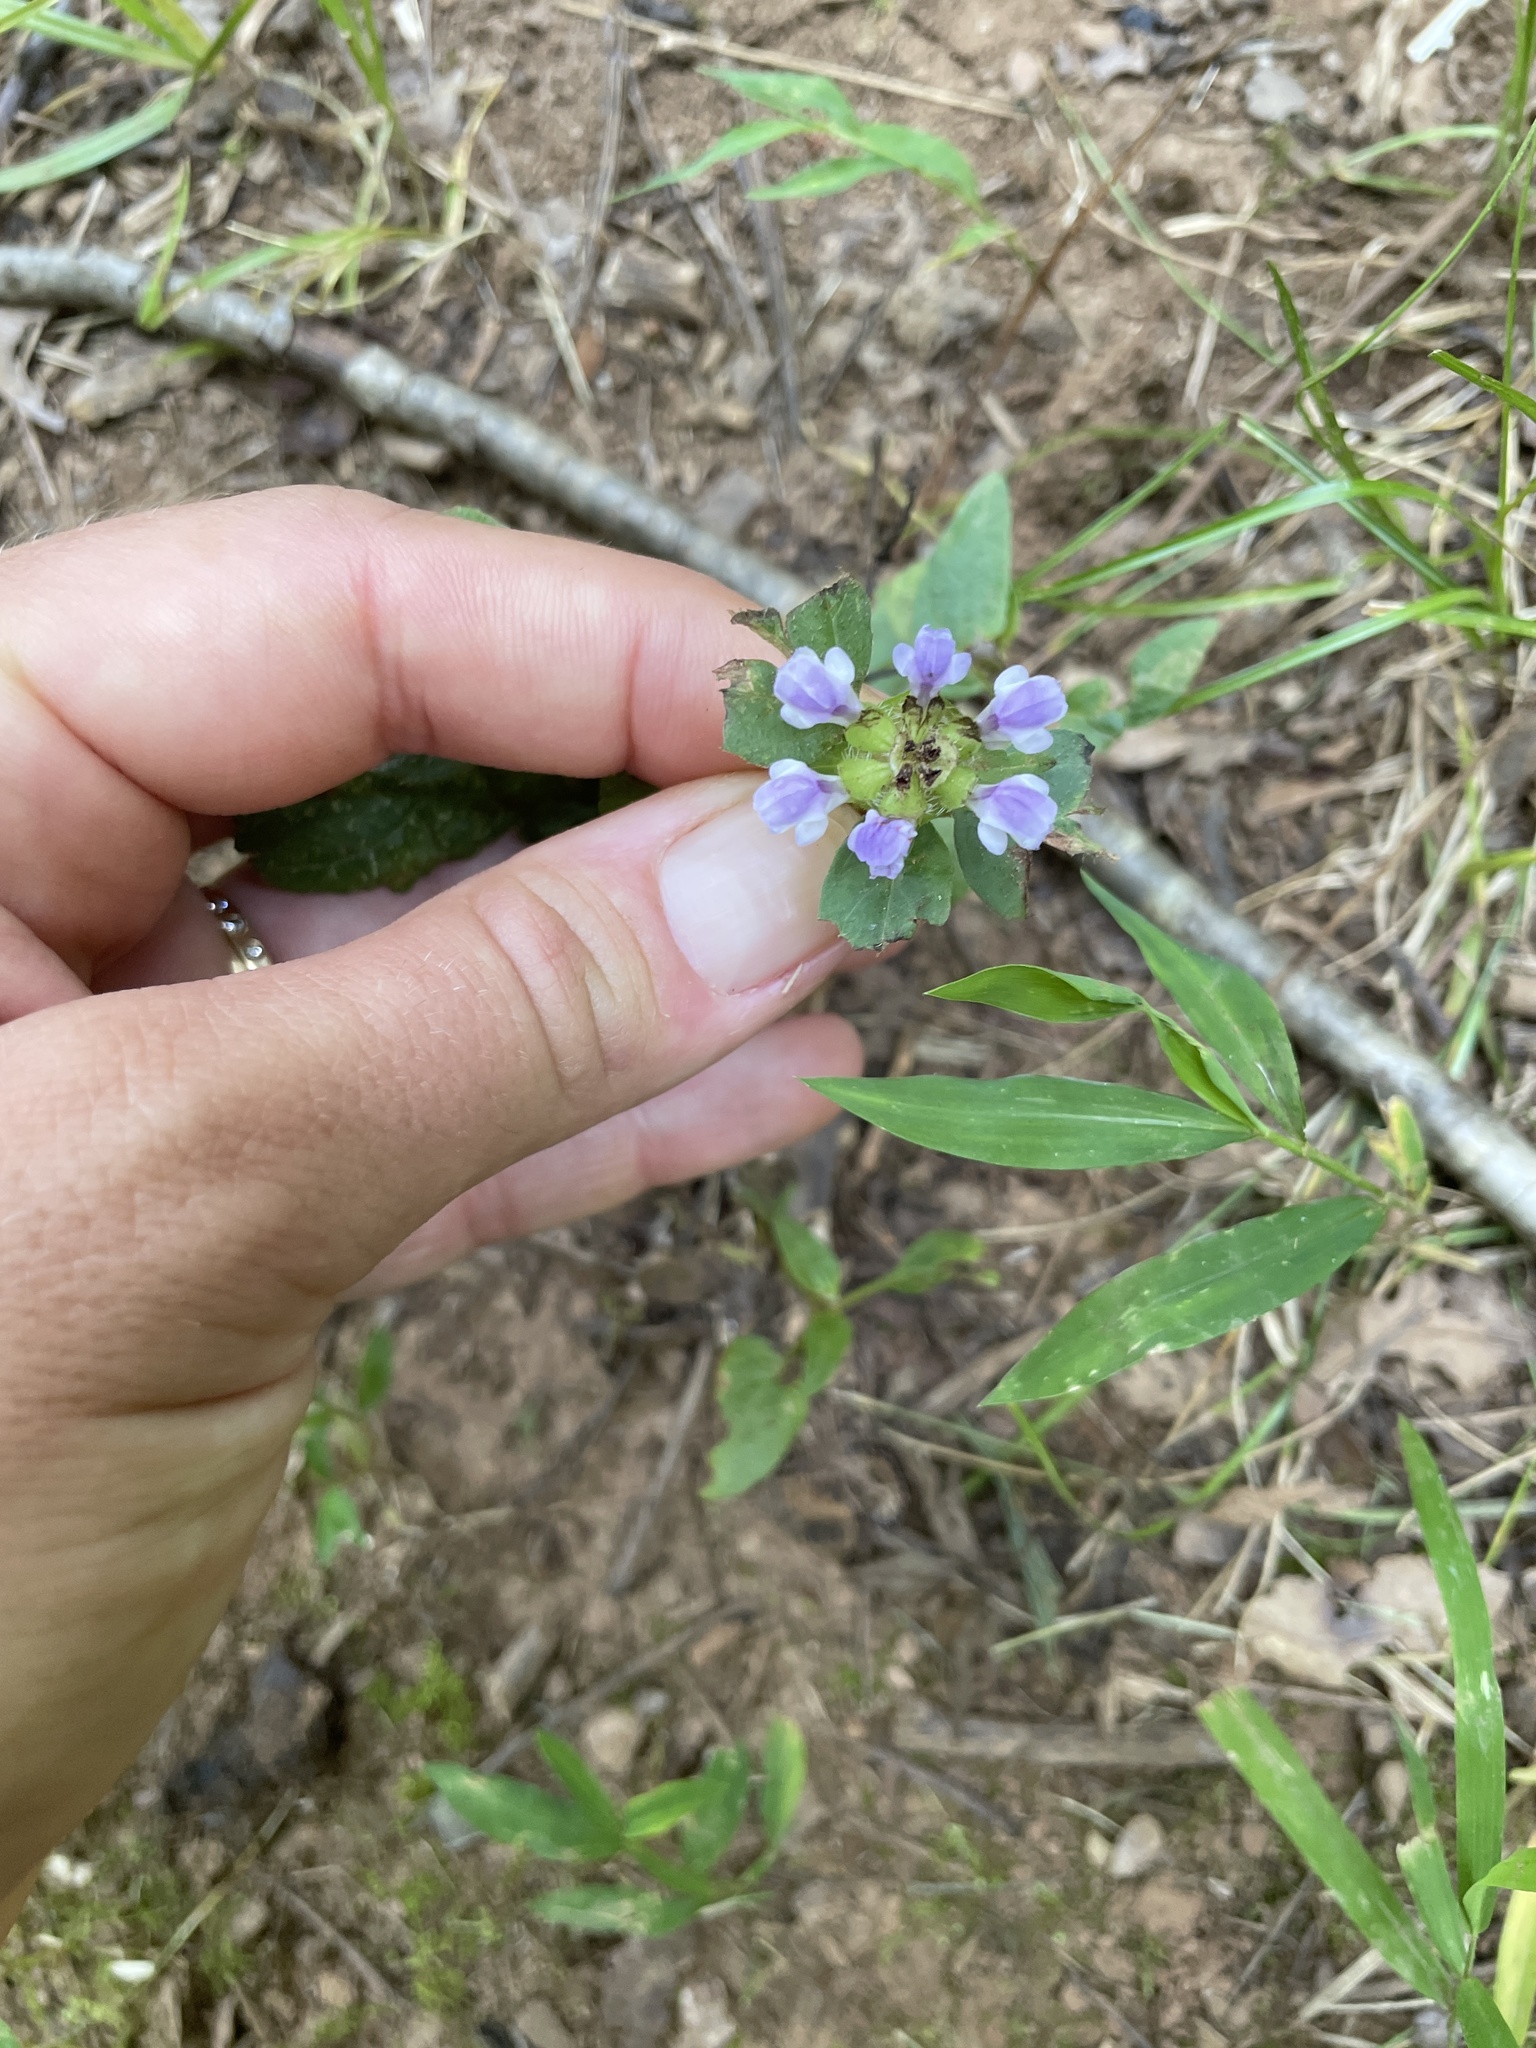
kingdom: Plantae
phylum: Tracheophyta
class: Magnoliopsida
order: Lamiales
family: Lamiaceae
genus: Prunella
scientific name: Prunella vulgaris
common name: Heal-all
